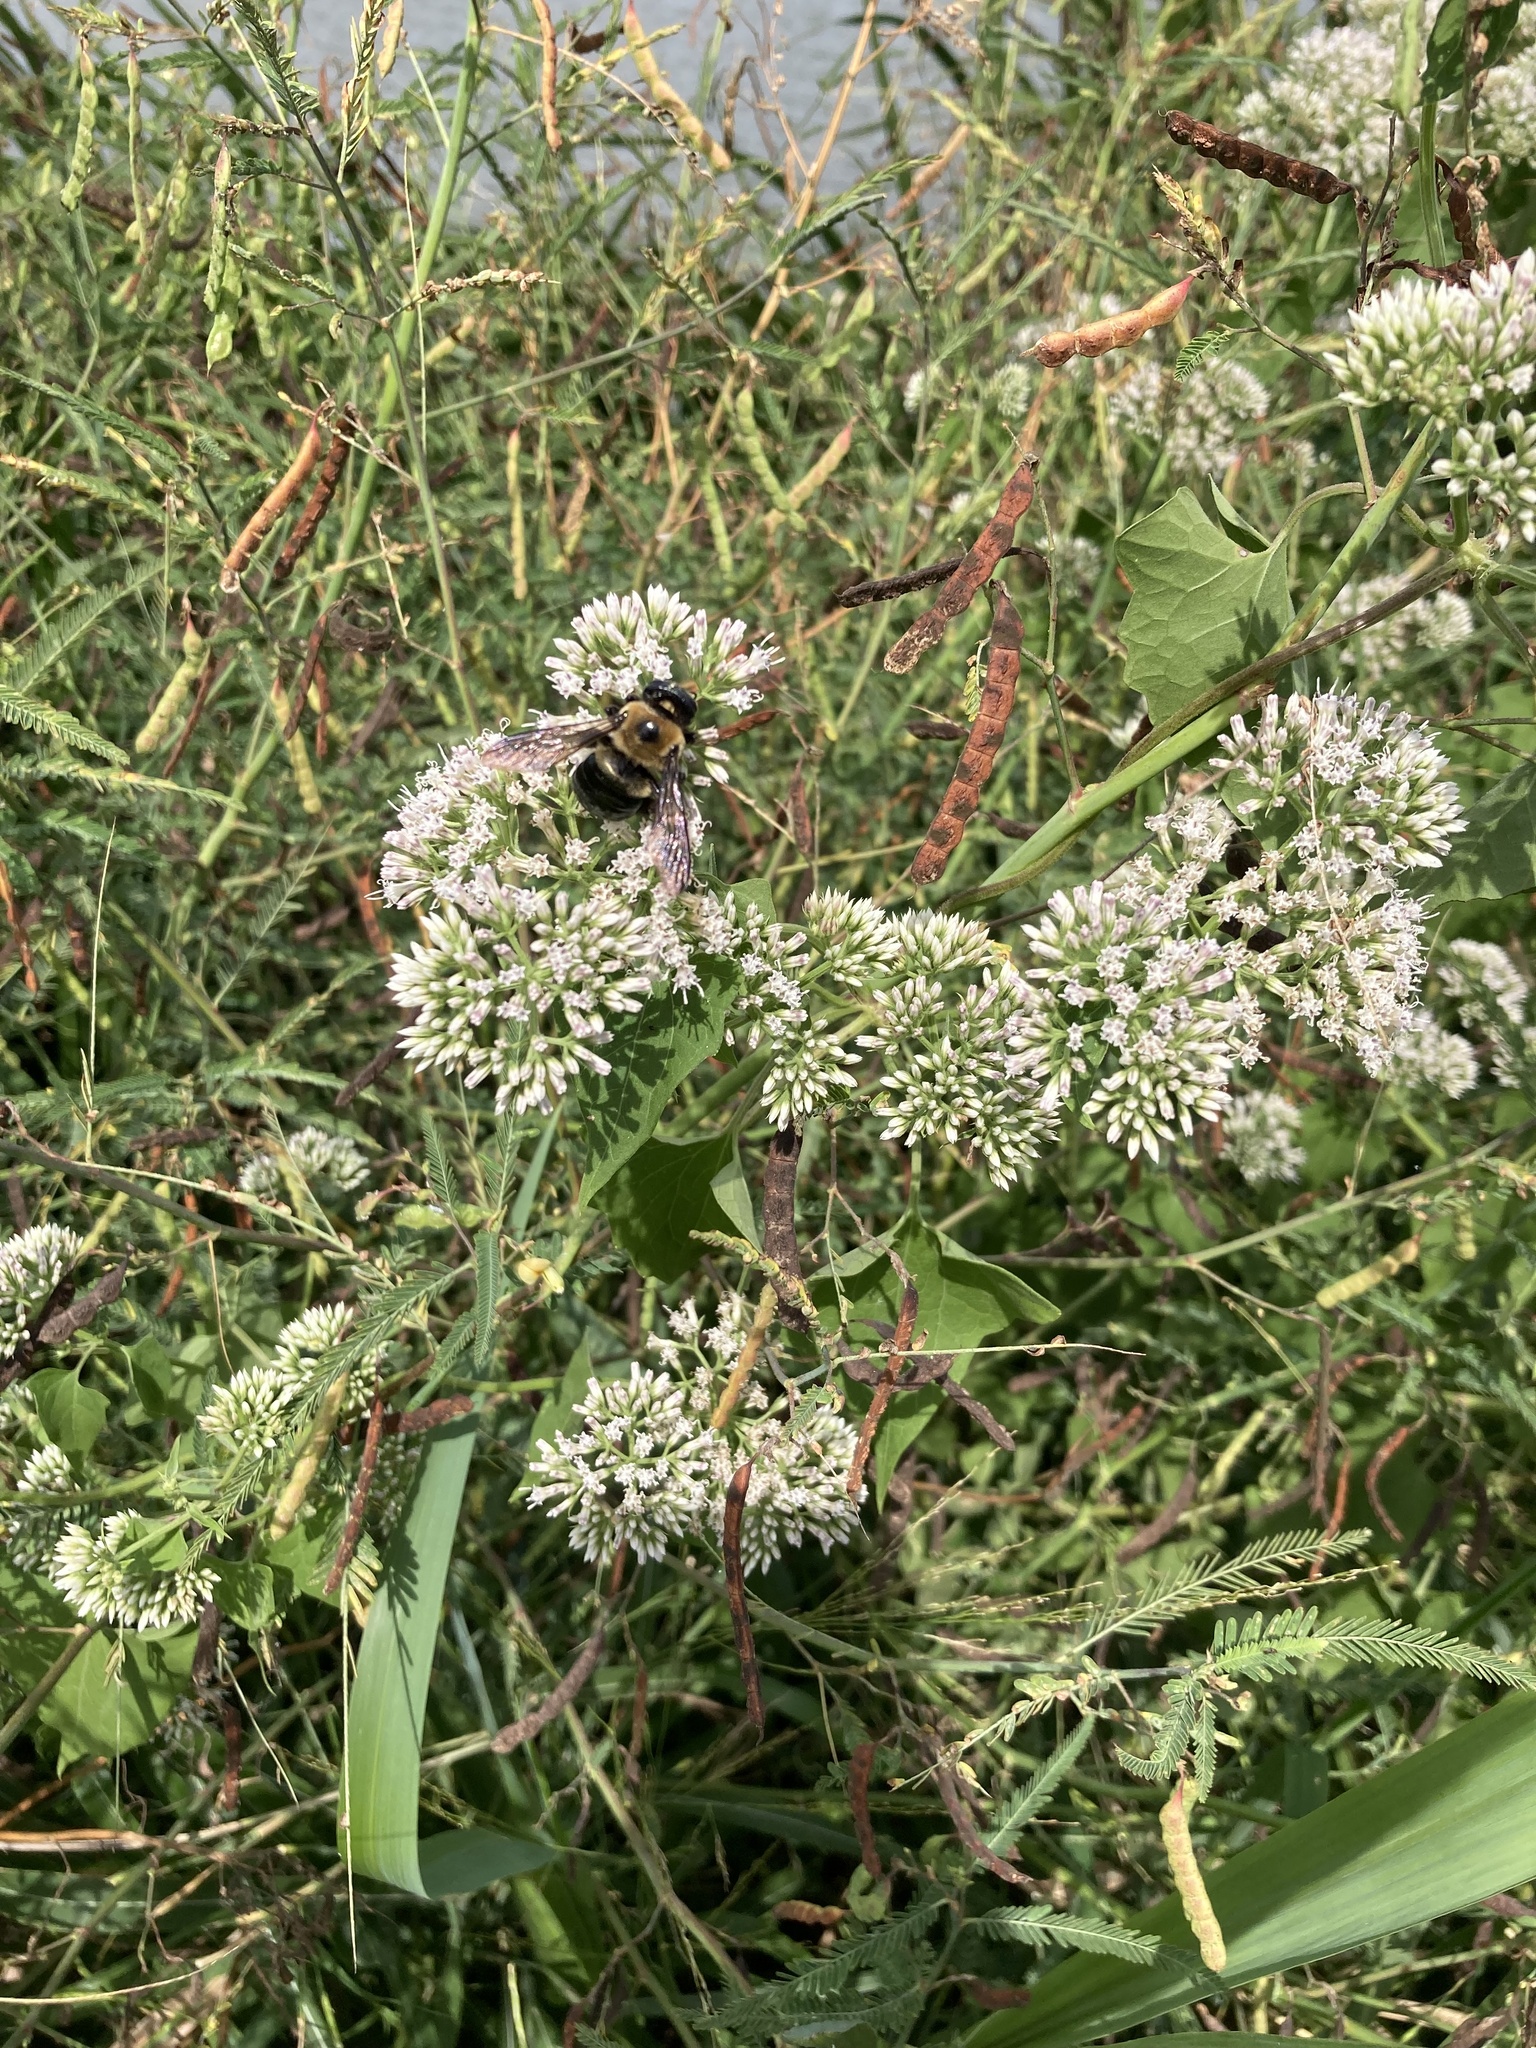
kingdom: Animalia
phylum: Arthropoda
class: Insecta
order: Hymenoptera
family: Apidae
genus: Xylocopa
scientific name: Xylocopa virginica
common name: Carpenter bee
